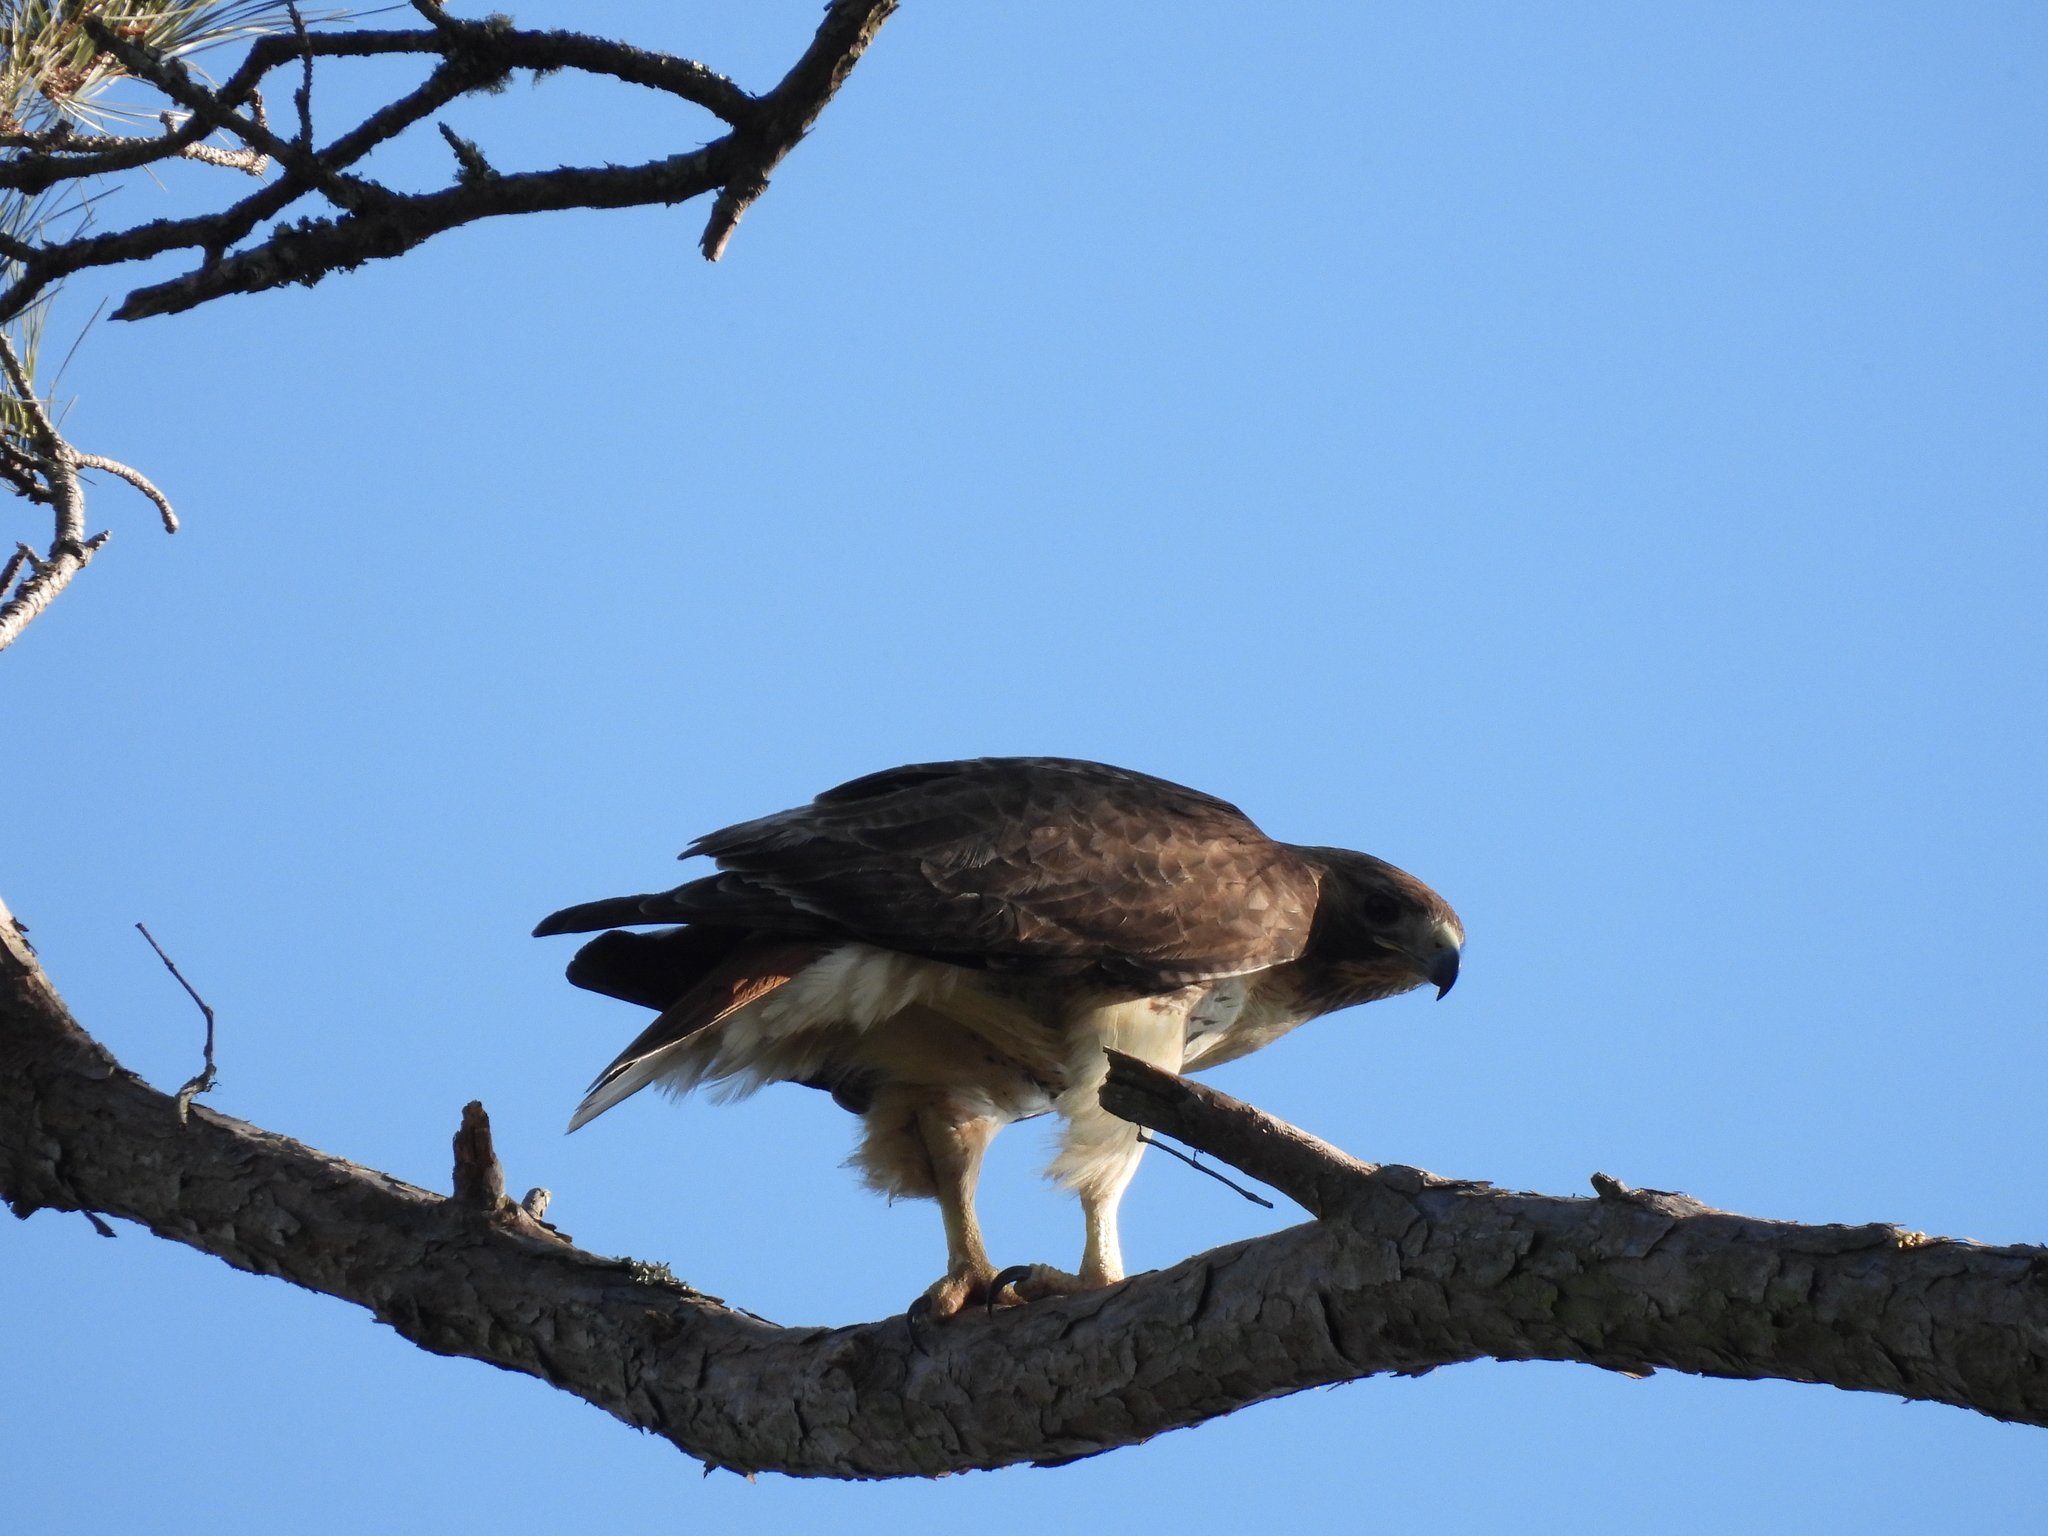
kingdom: Animalia
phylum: Chordata
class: Aves
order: Accipitriformes
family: Accipitridae
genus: Buteo
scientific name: Buteo jamaicensis
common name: Red-tailed hawk
